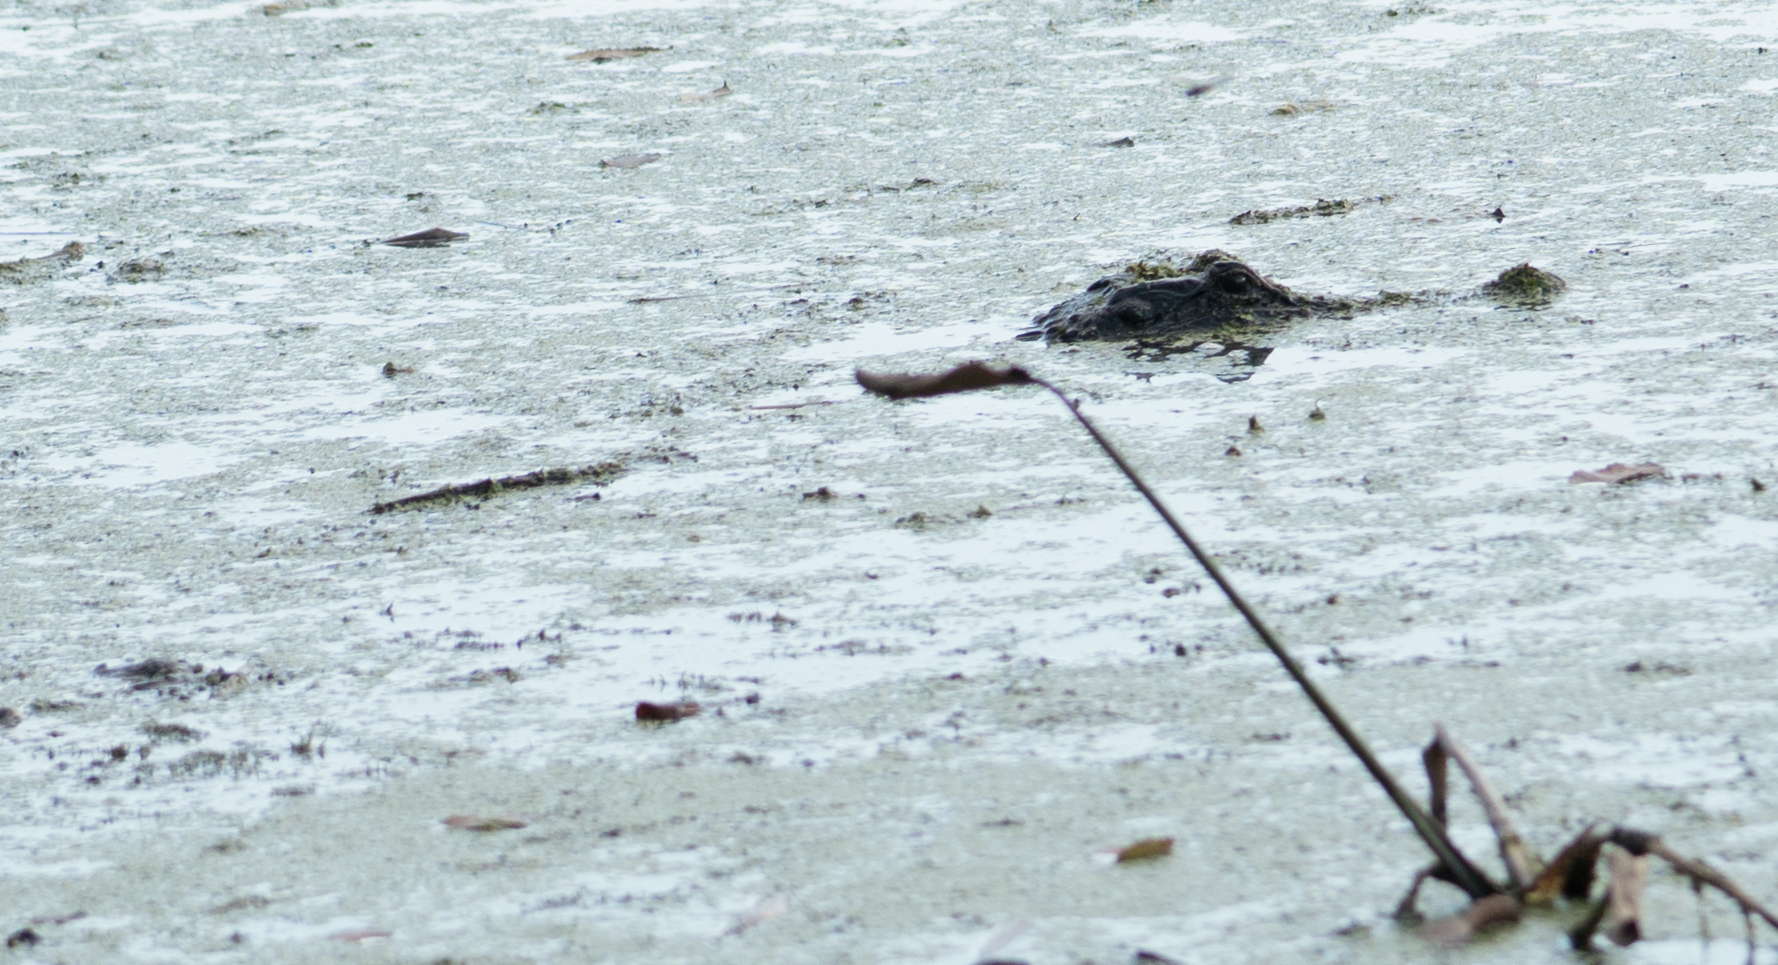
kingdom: Animalia
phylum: Chordata
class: Crocodylia
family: Alligatoridae
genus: Alligator
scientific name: Alligator mississippiensis
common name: American alligator
